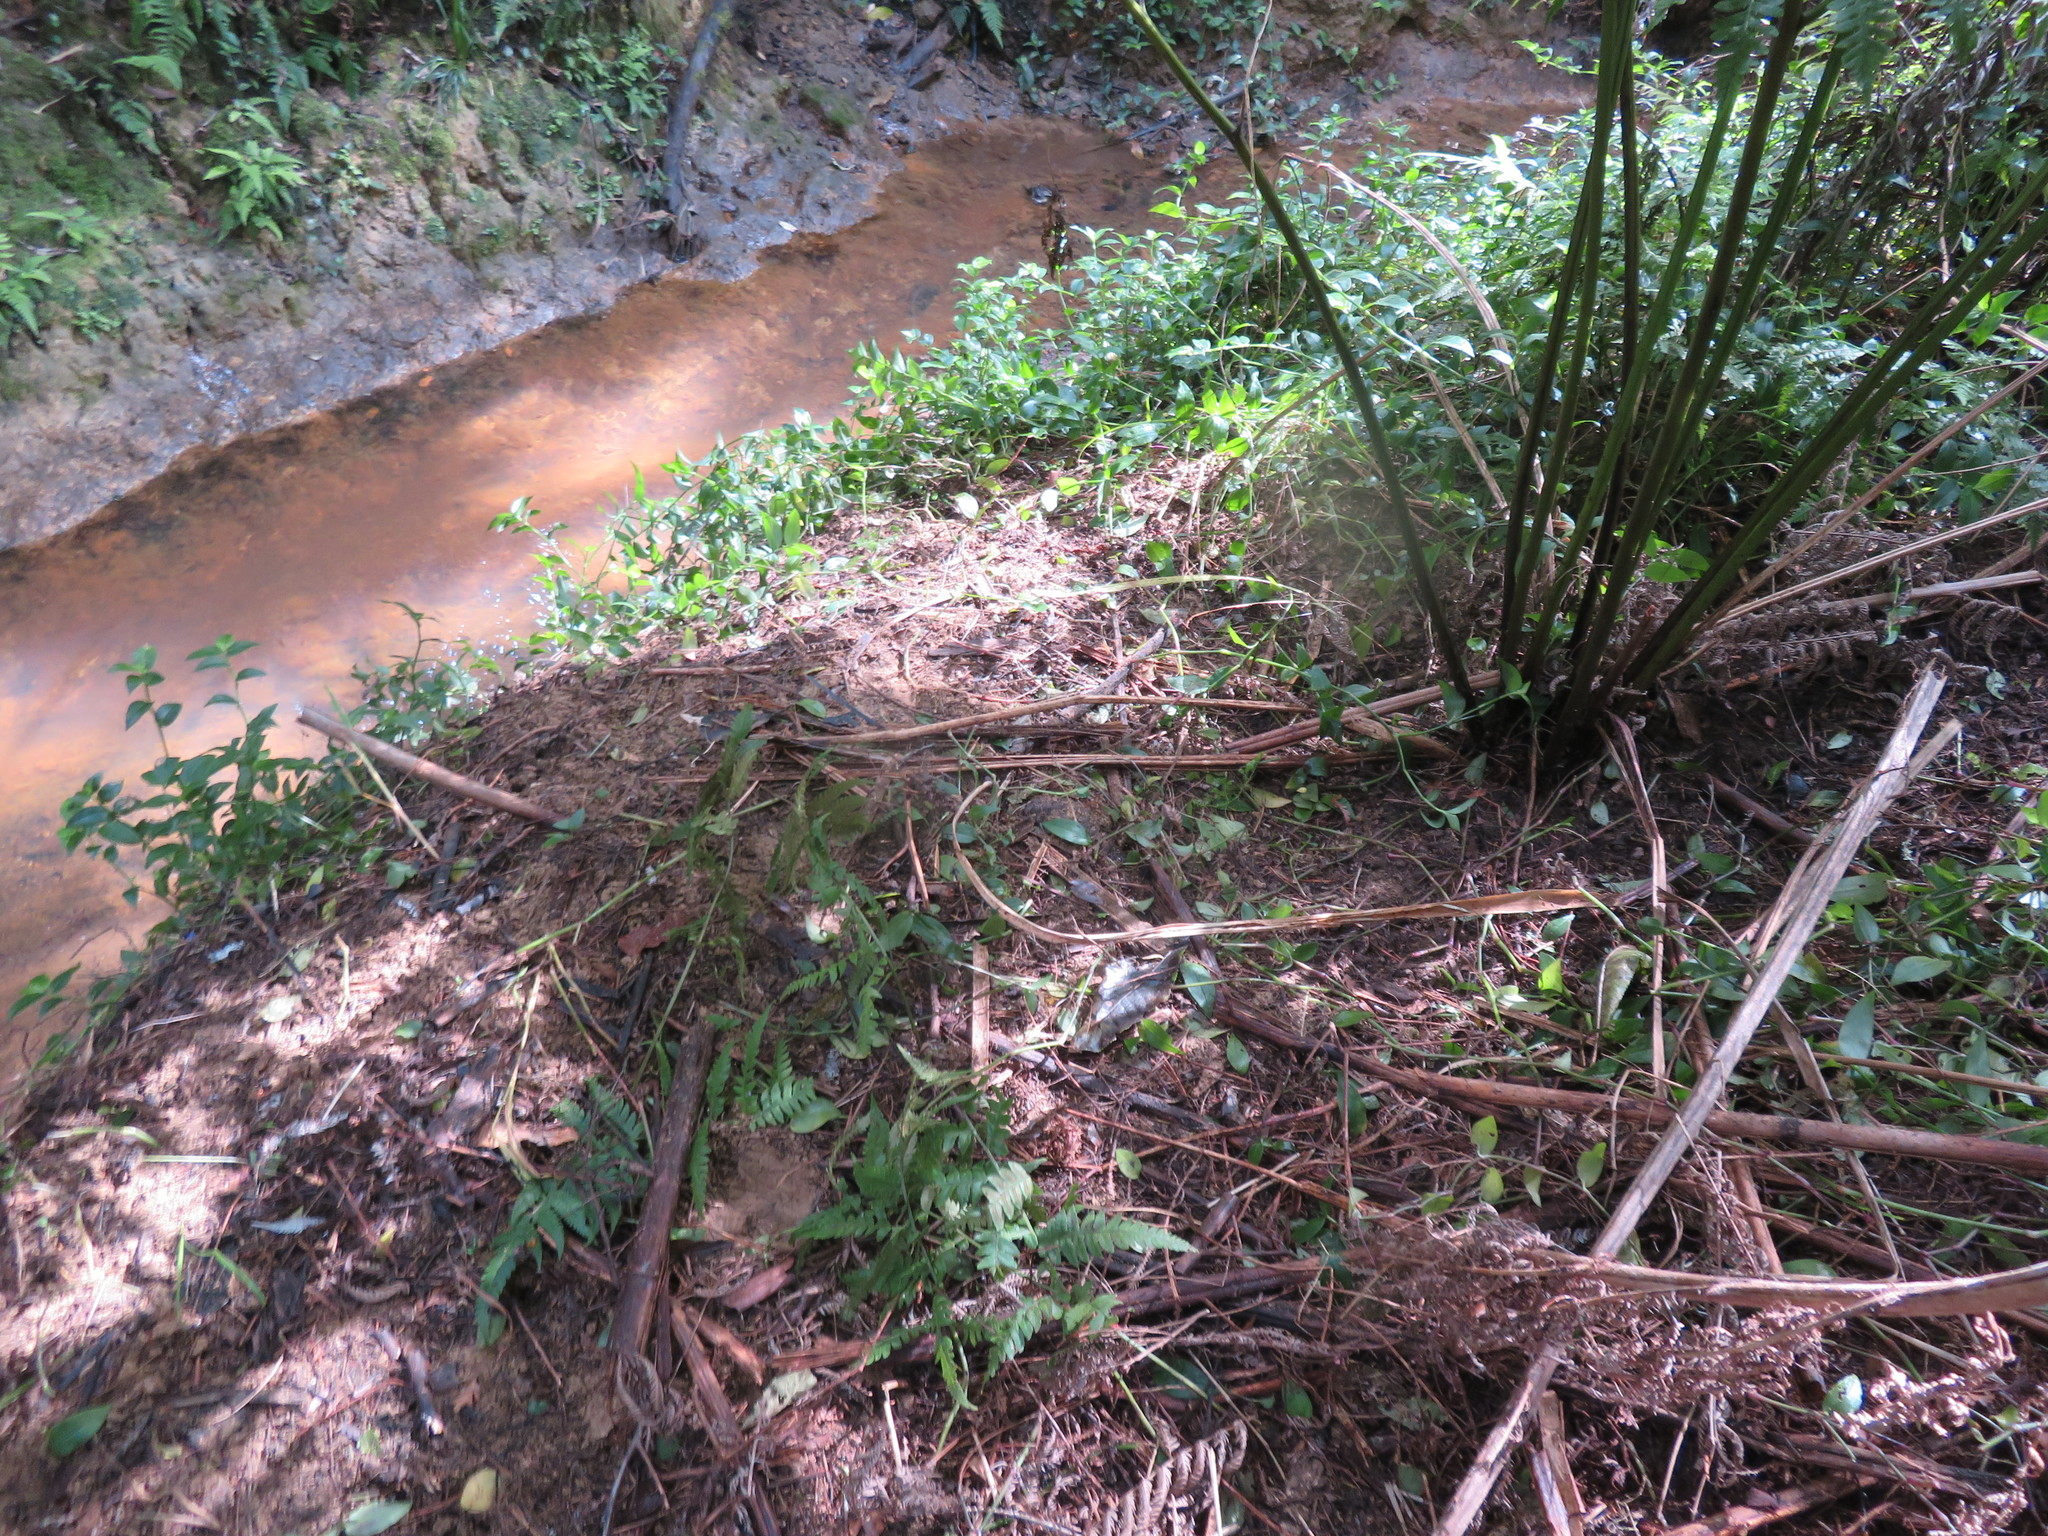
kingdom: Plantae
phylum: Tracheophyta
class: Liliopsida
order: Commelinales
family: Commelinaceae
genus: Tradescantia
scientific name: Tradescantia fluminensis
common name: Wandering-jew
